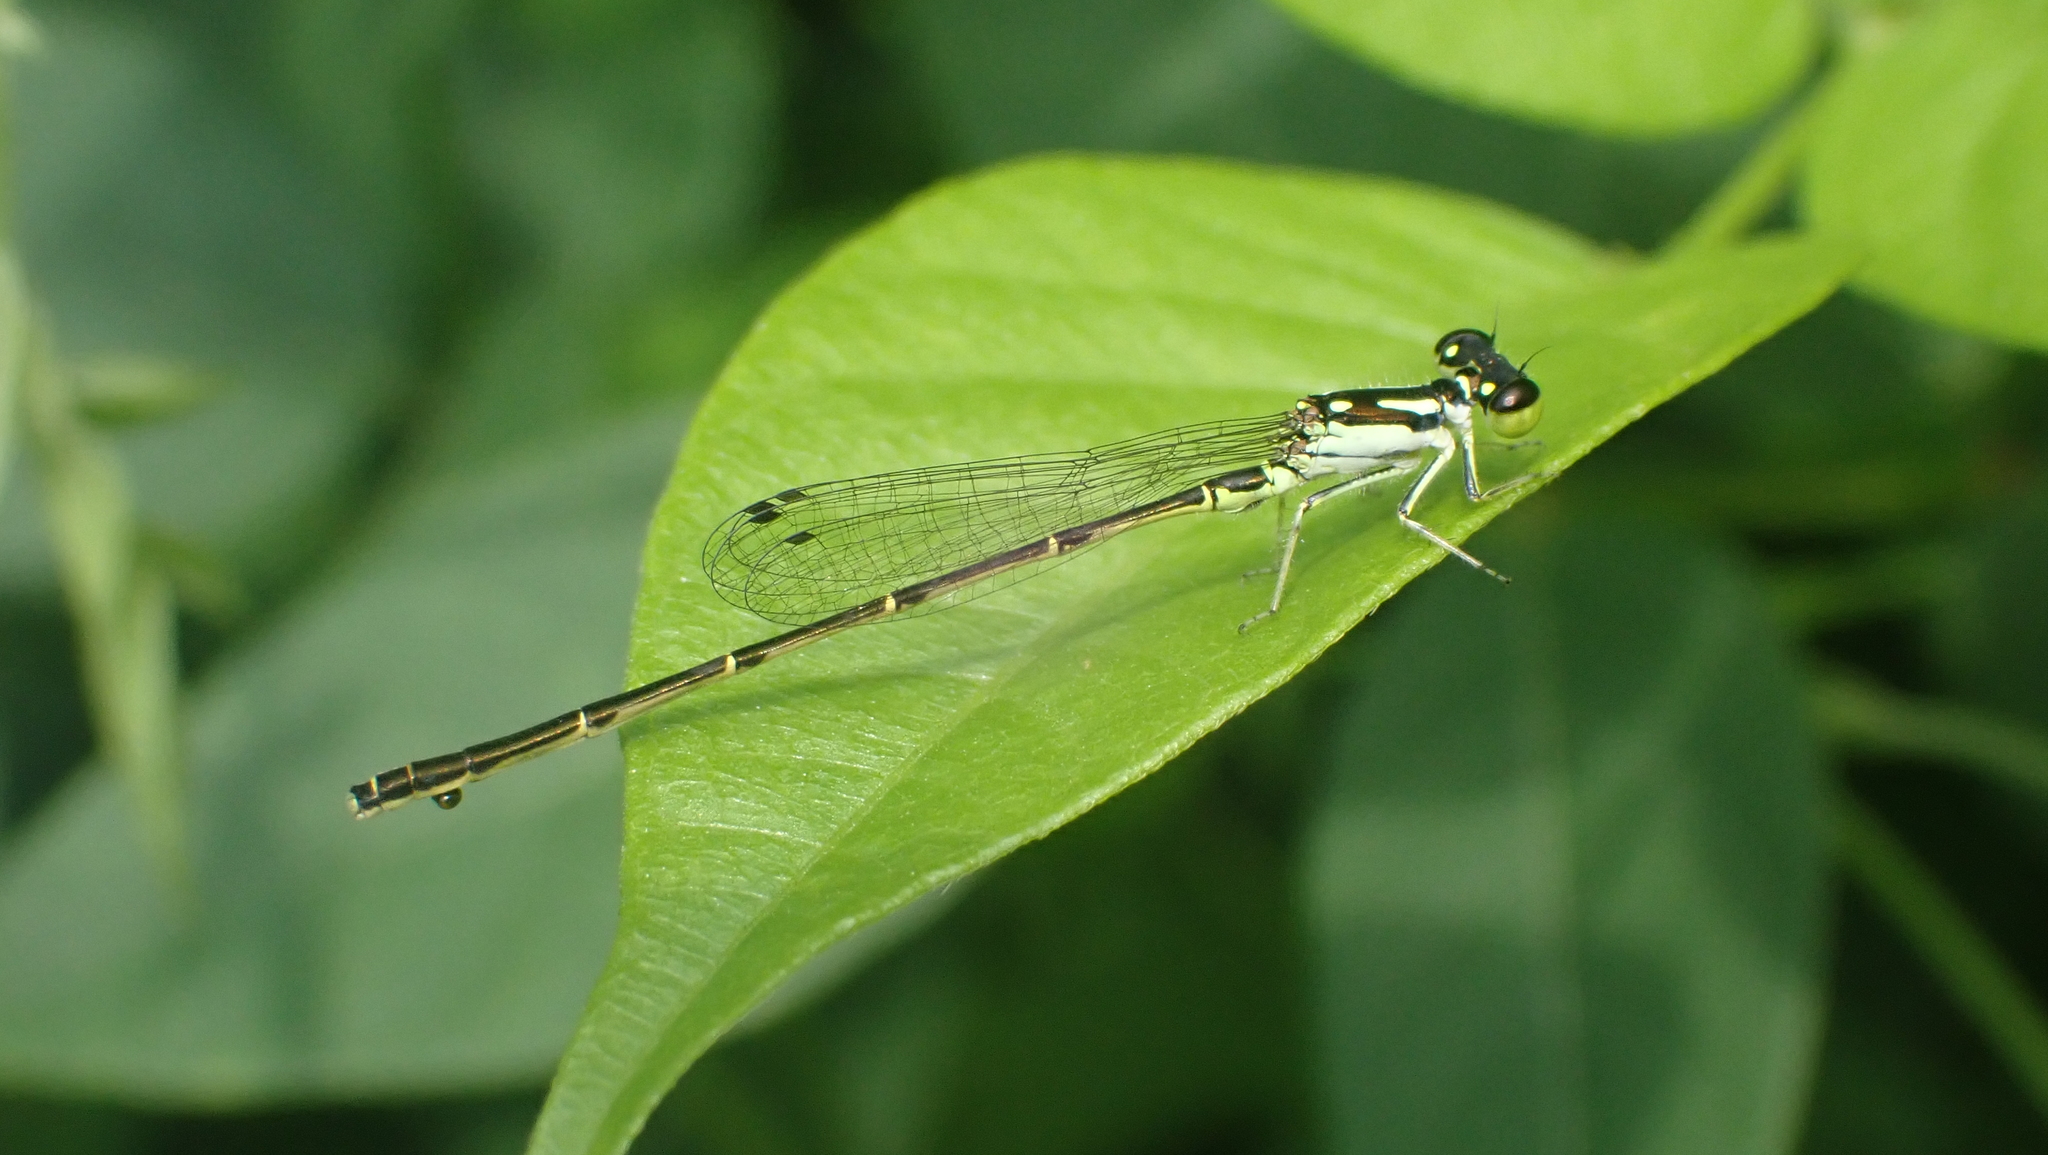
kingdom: Animalia
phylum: Arthropoda
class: Insecta
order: Odonata
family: Coenagrionidae
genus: Ischnura
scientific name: Ischnura posita
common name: Fragile forktail
